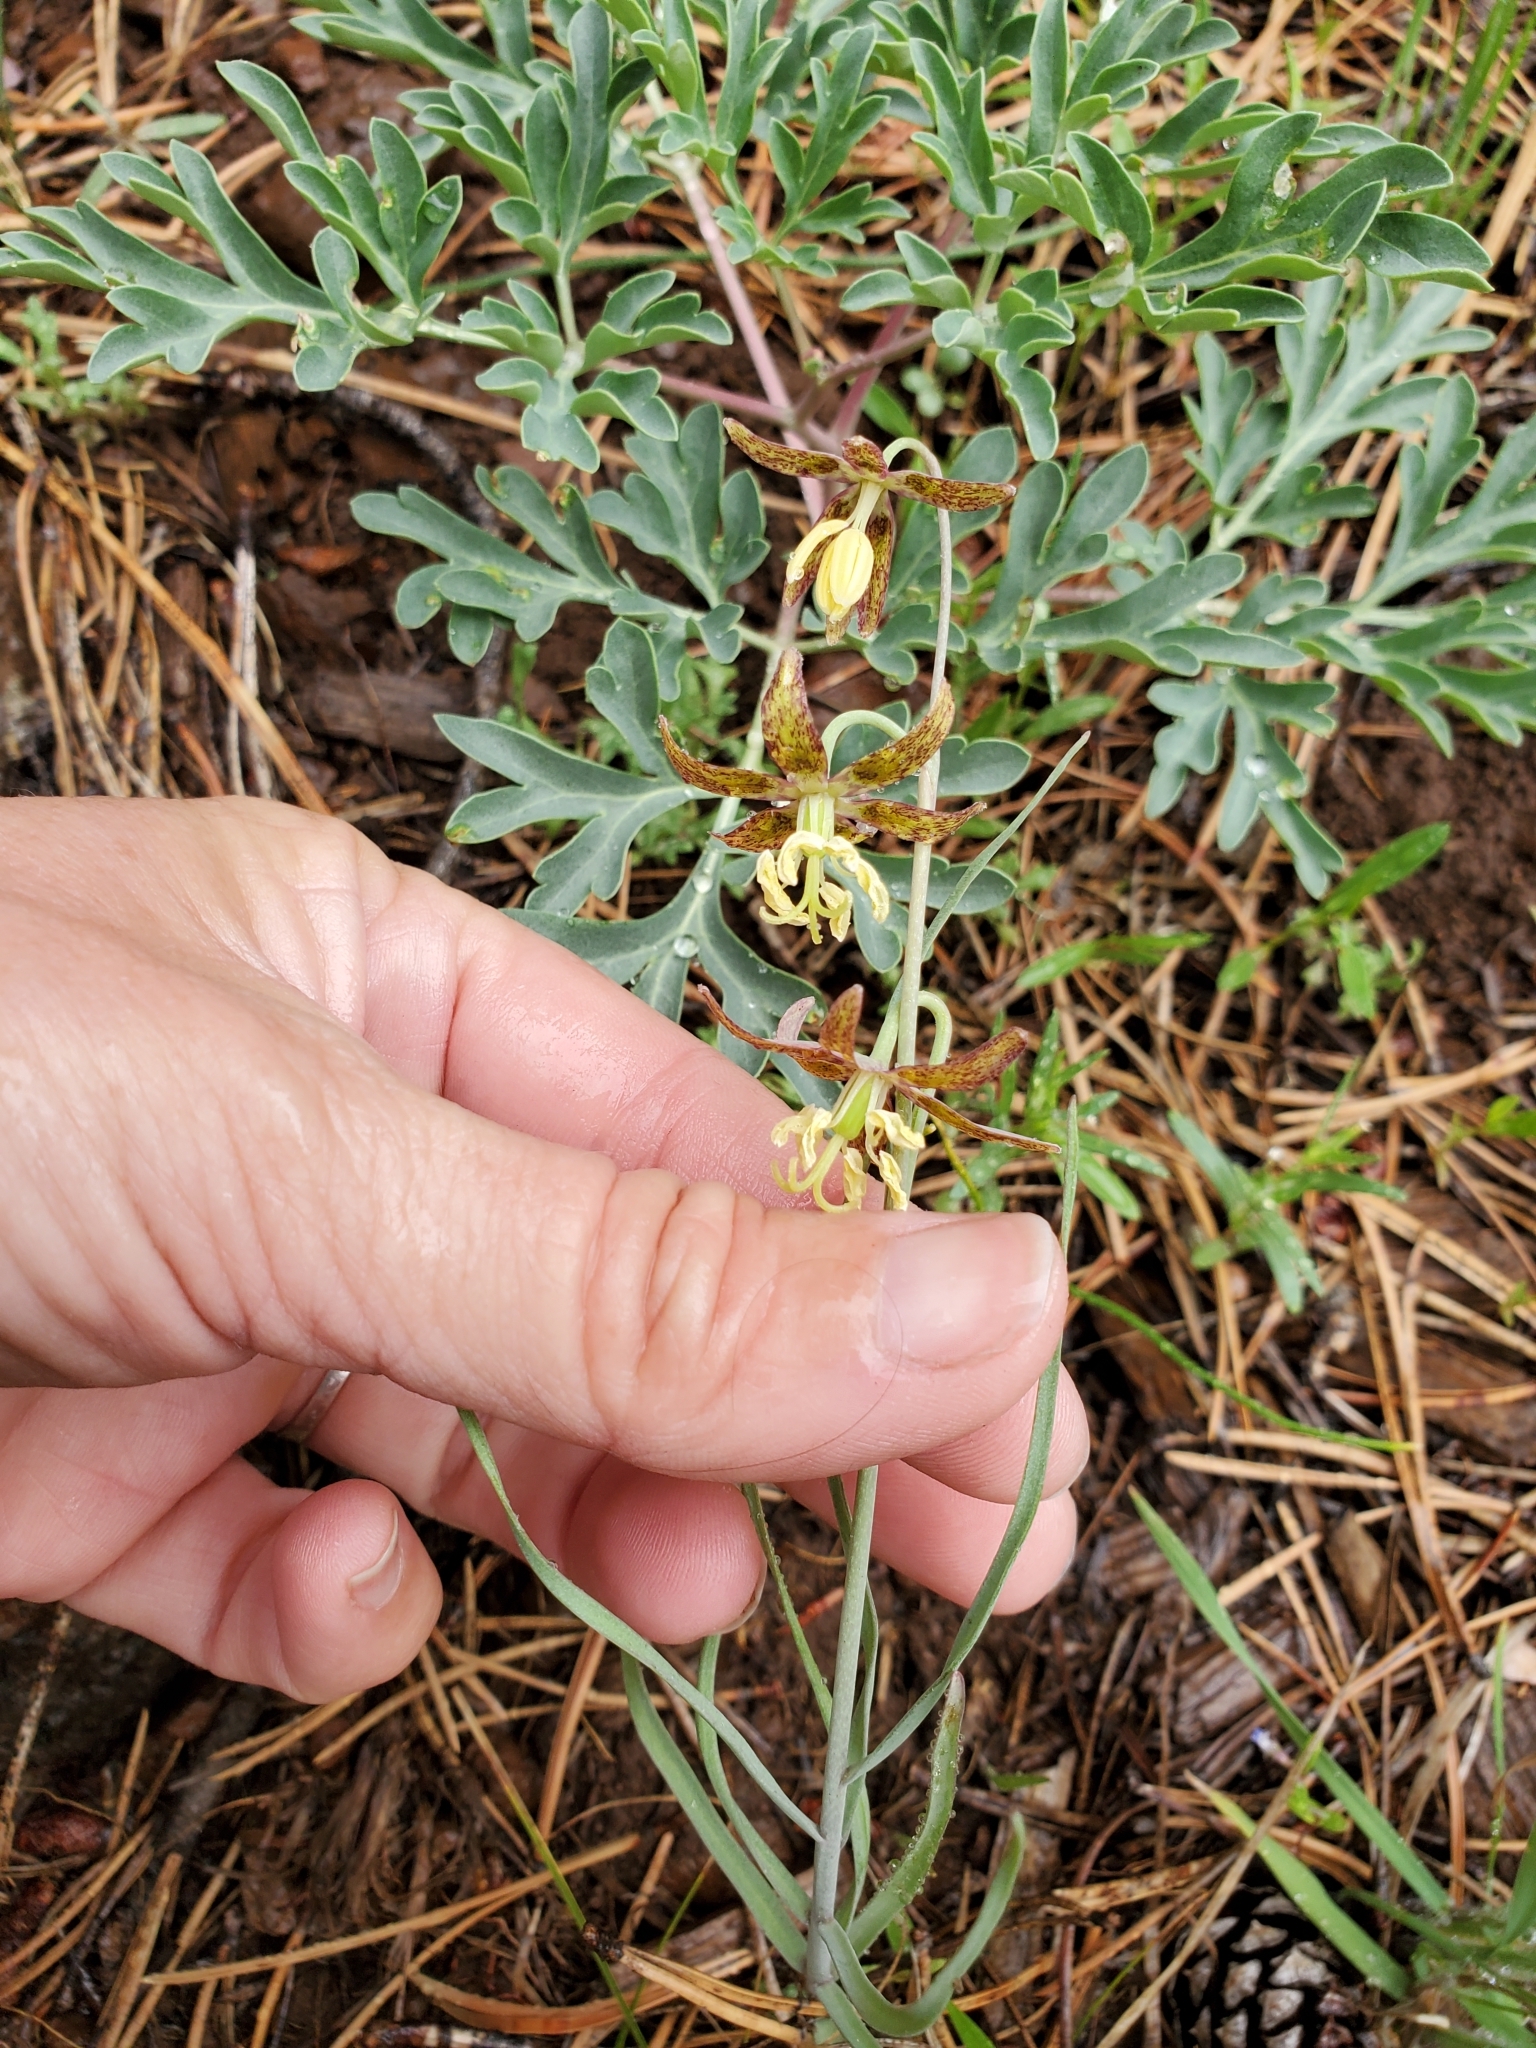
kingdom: Plantae
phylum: Tracheophyta
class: Liliopsida
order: Liliales
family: Liliaceae
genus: Fritillaria
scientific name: Fritillaria atropurpurea
